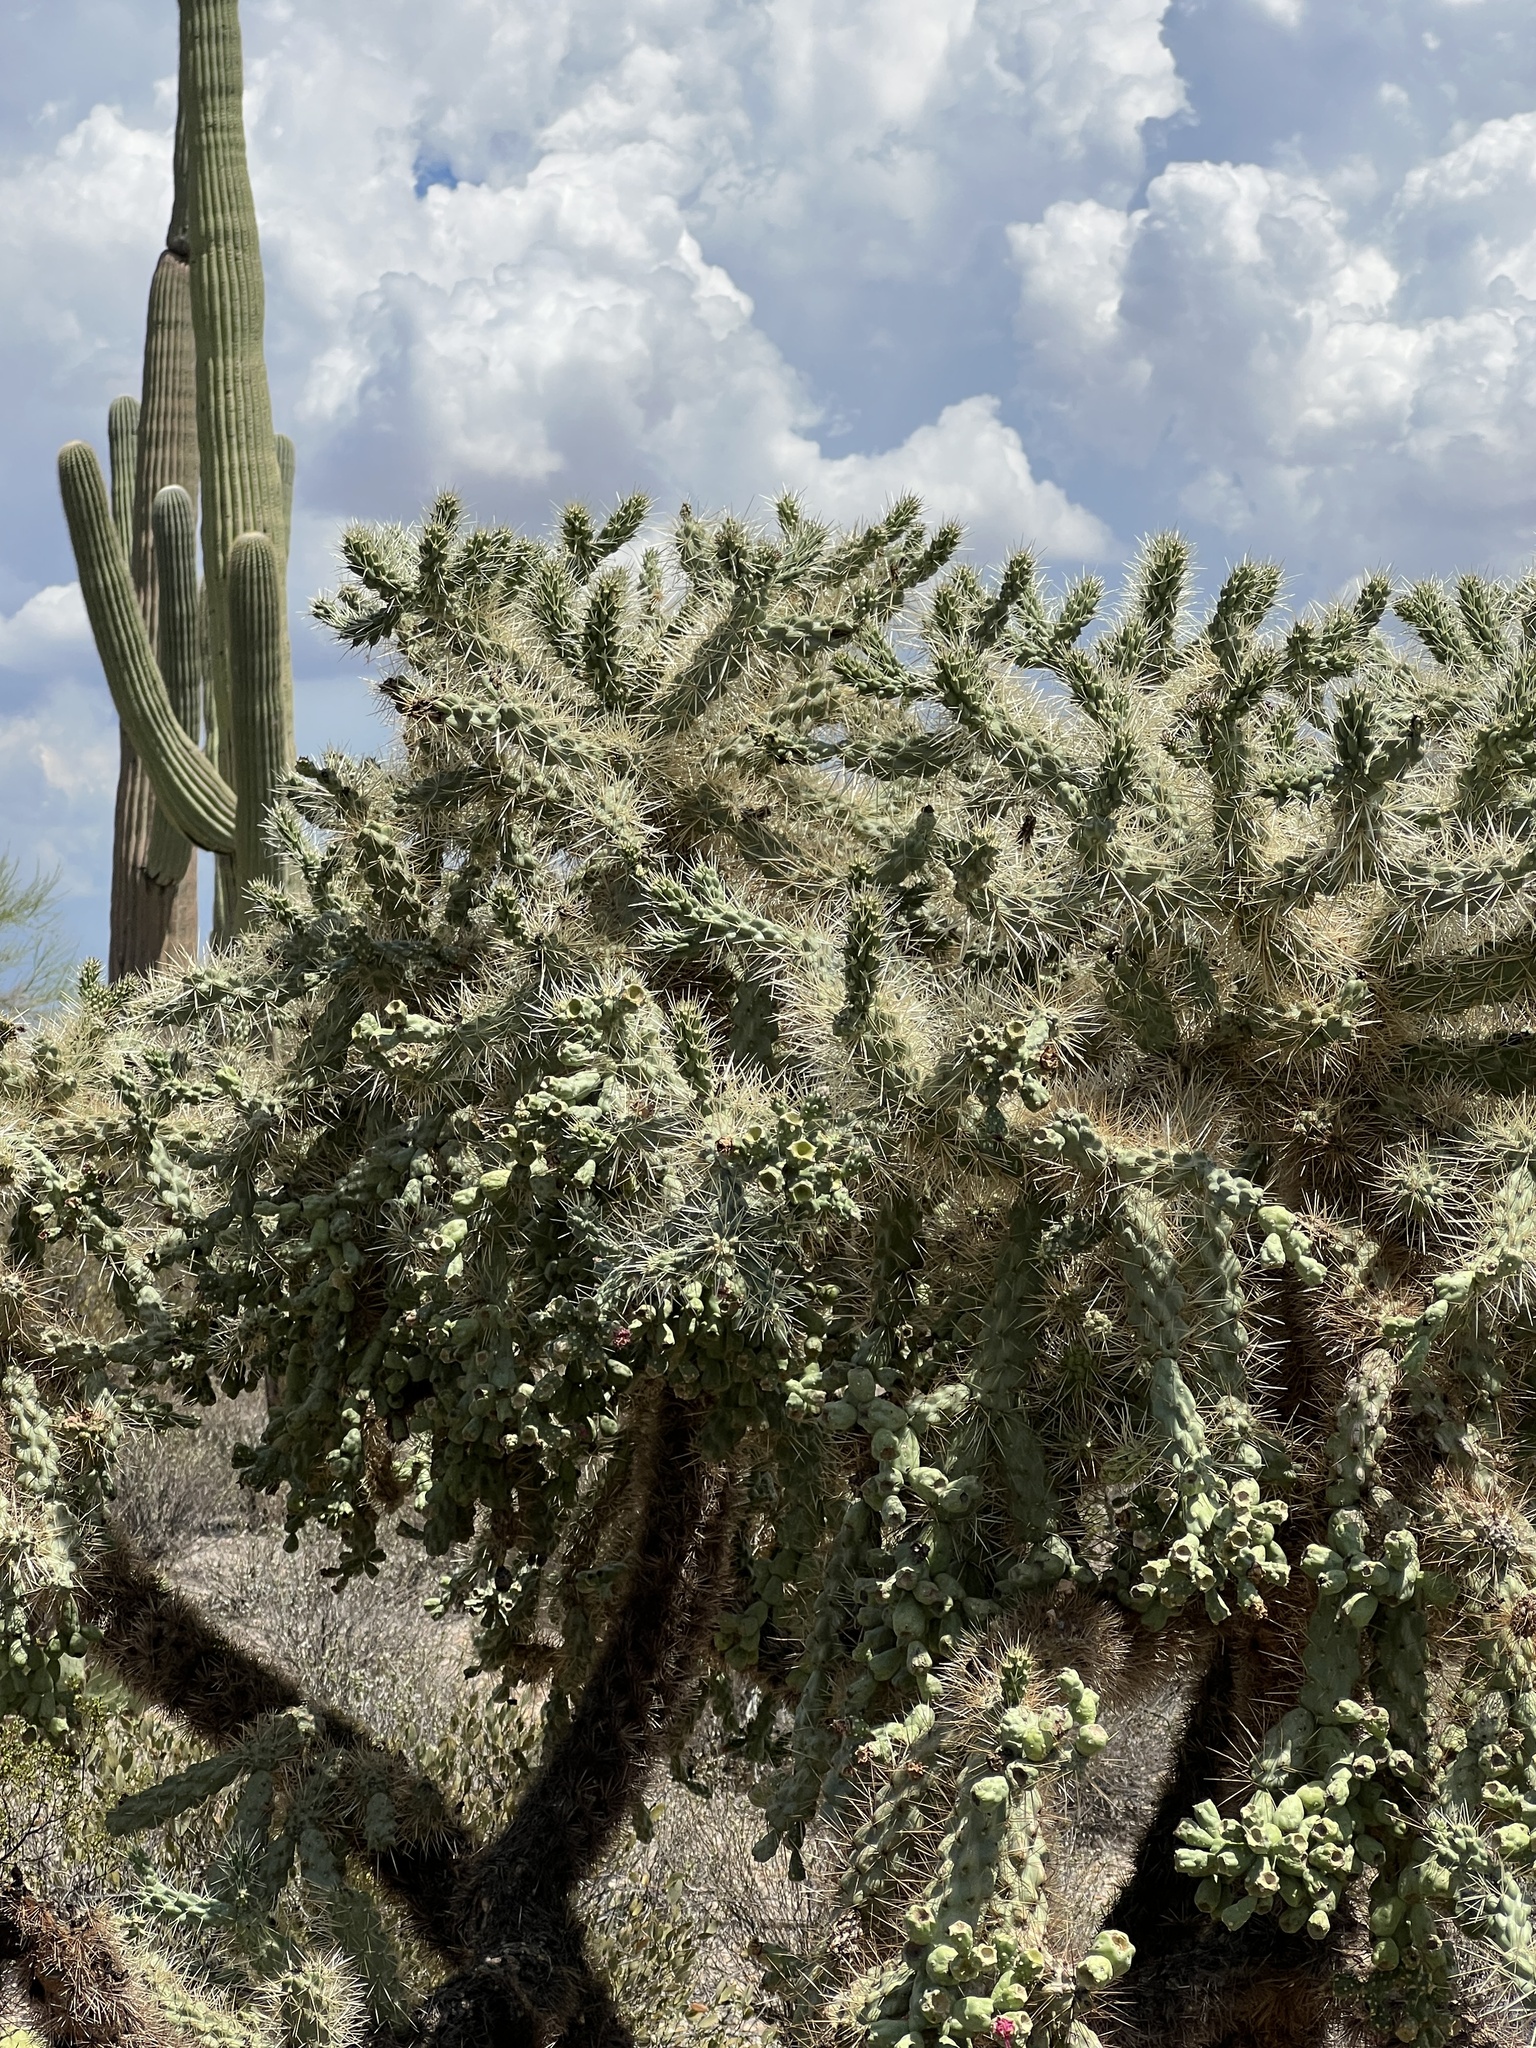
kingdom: Plantae
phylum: Tracheophyta
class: Magnoliopsida
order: Caryophyllales
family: Cactaceae
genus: Cylindropuntia
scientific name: Cylindropuntia fulgida
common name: Jumping cholla
